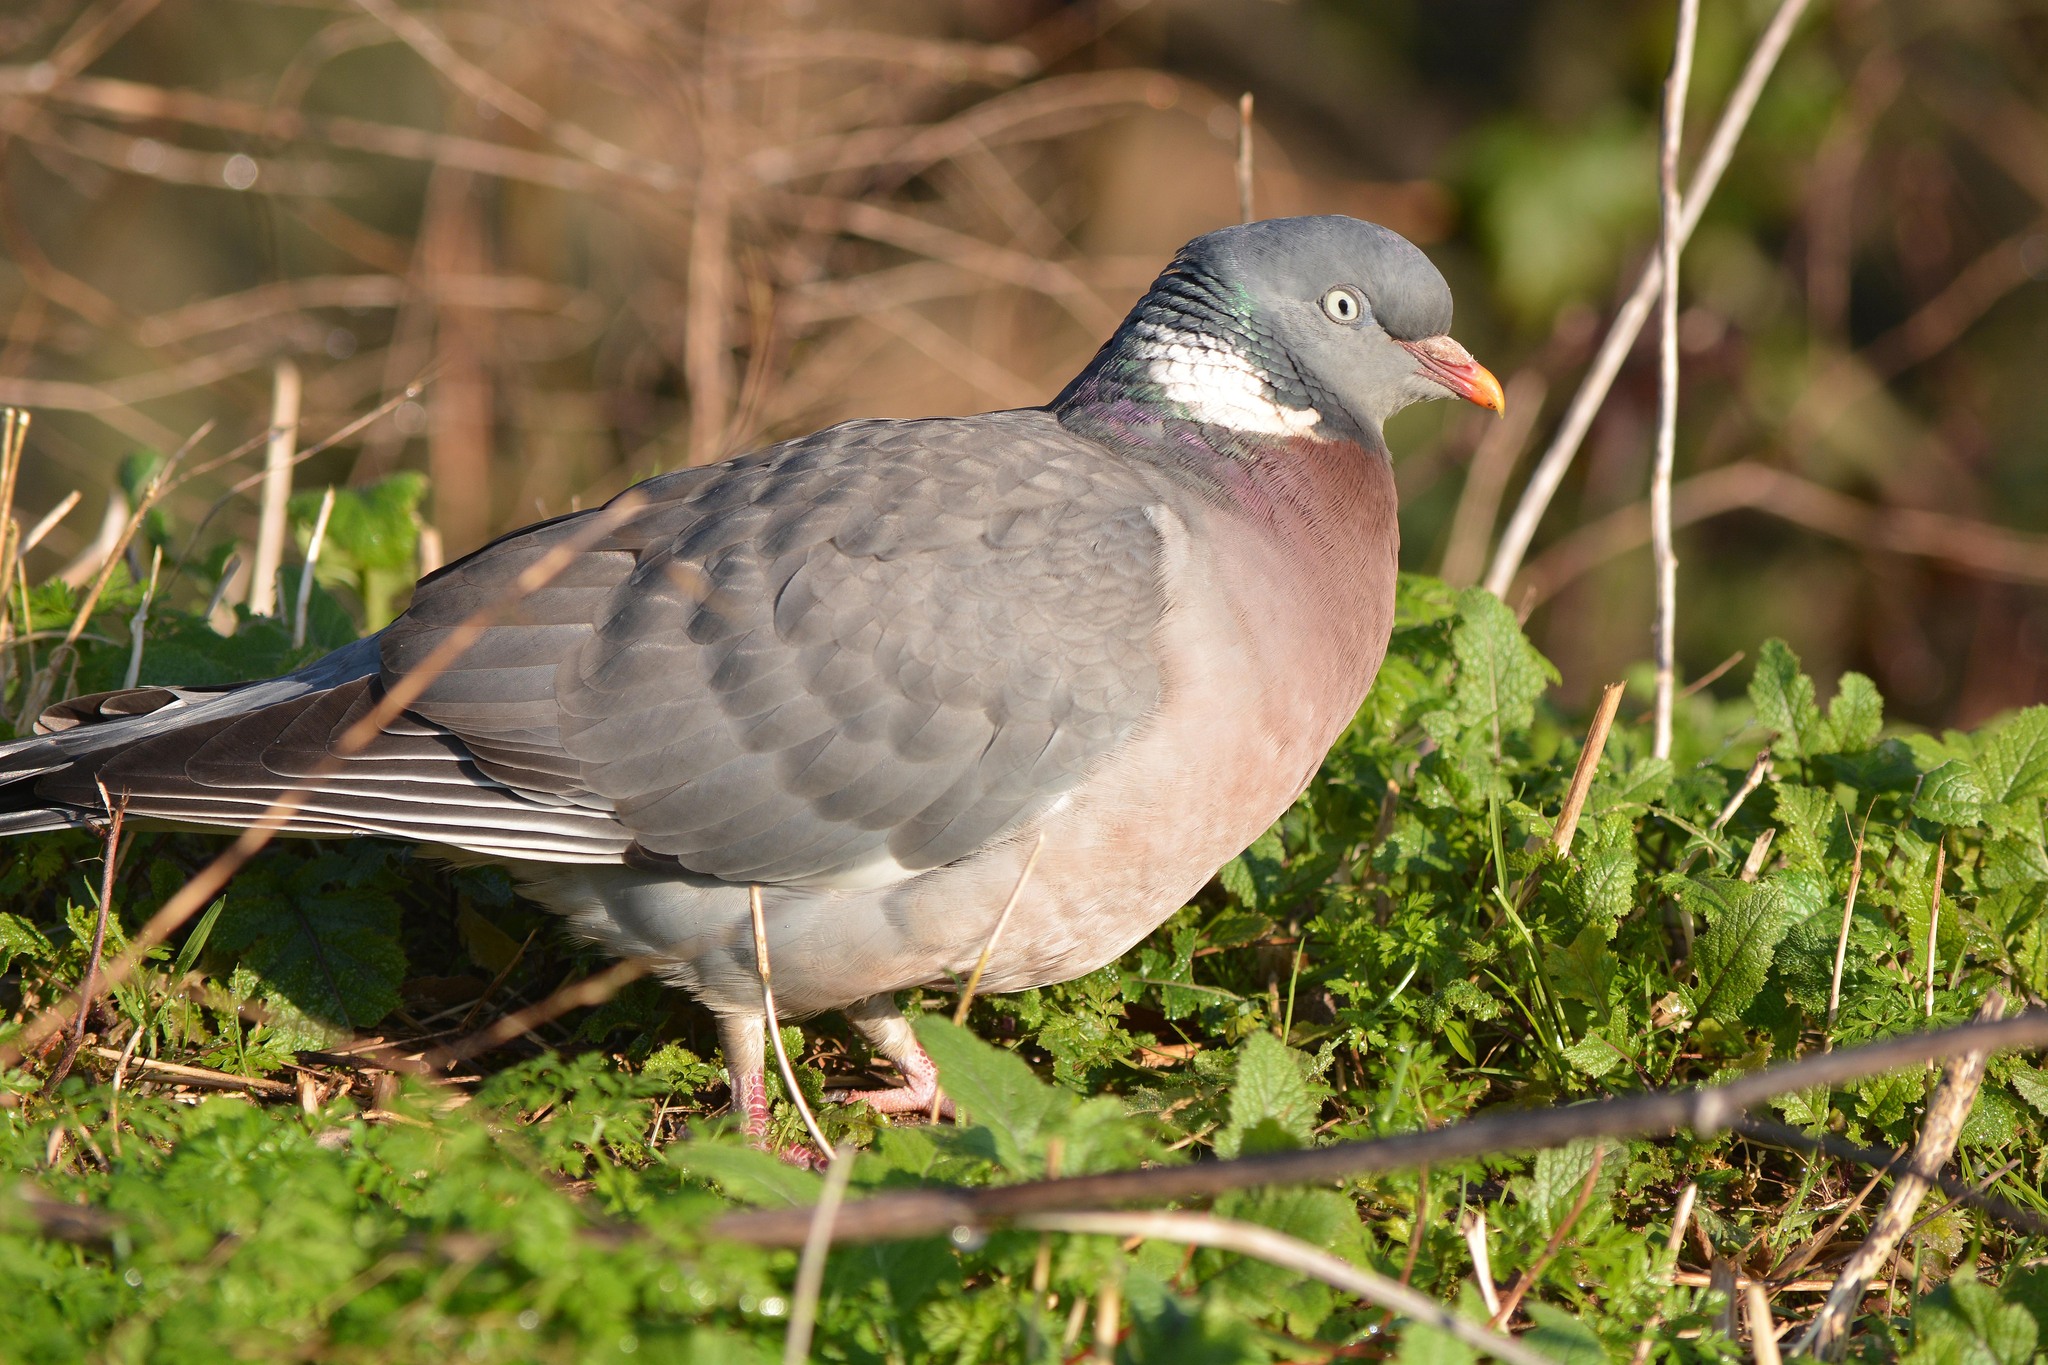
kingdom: Animalia
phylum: Chordata
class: Aves
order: Columbiformes
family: Columbidae
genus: Columba
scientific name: Columba palumbus
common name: Common wood pigeon
